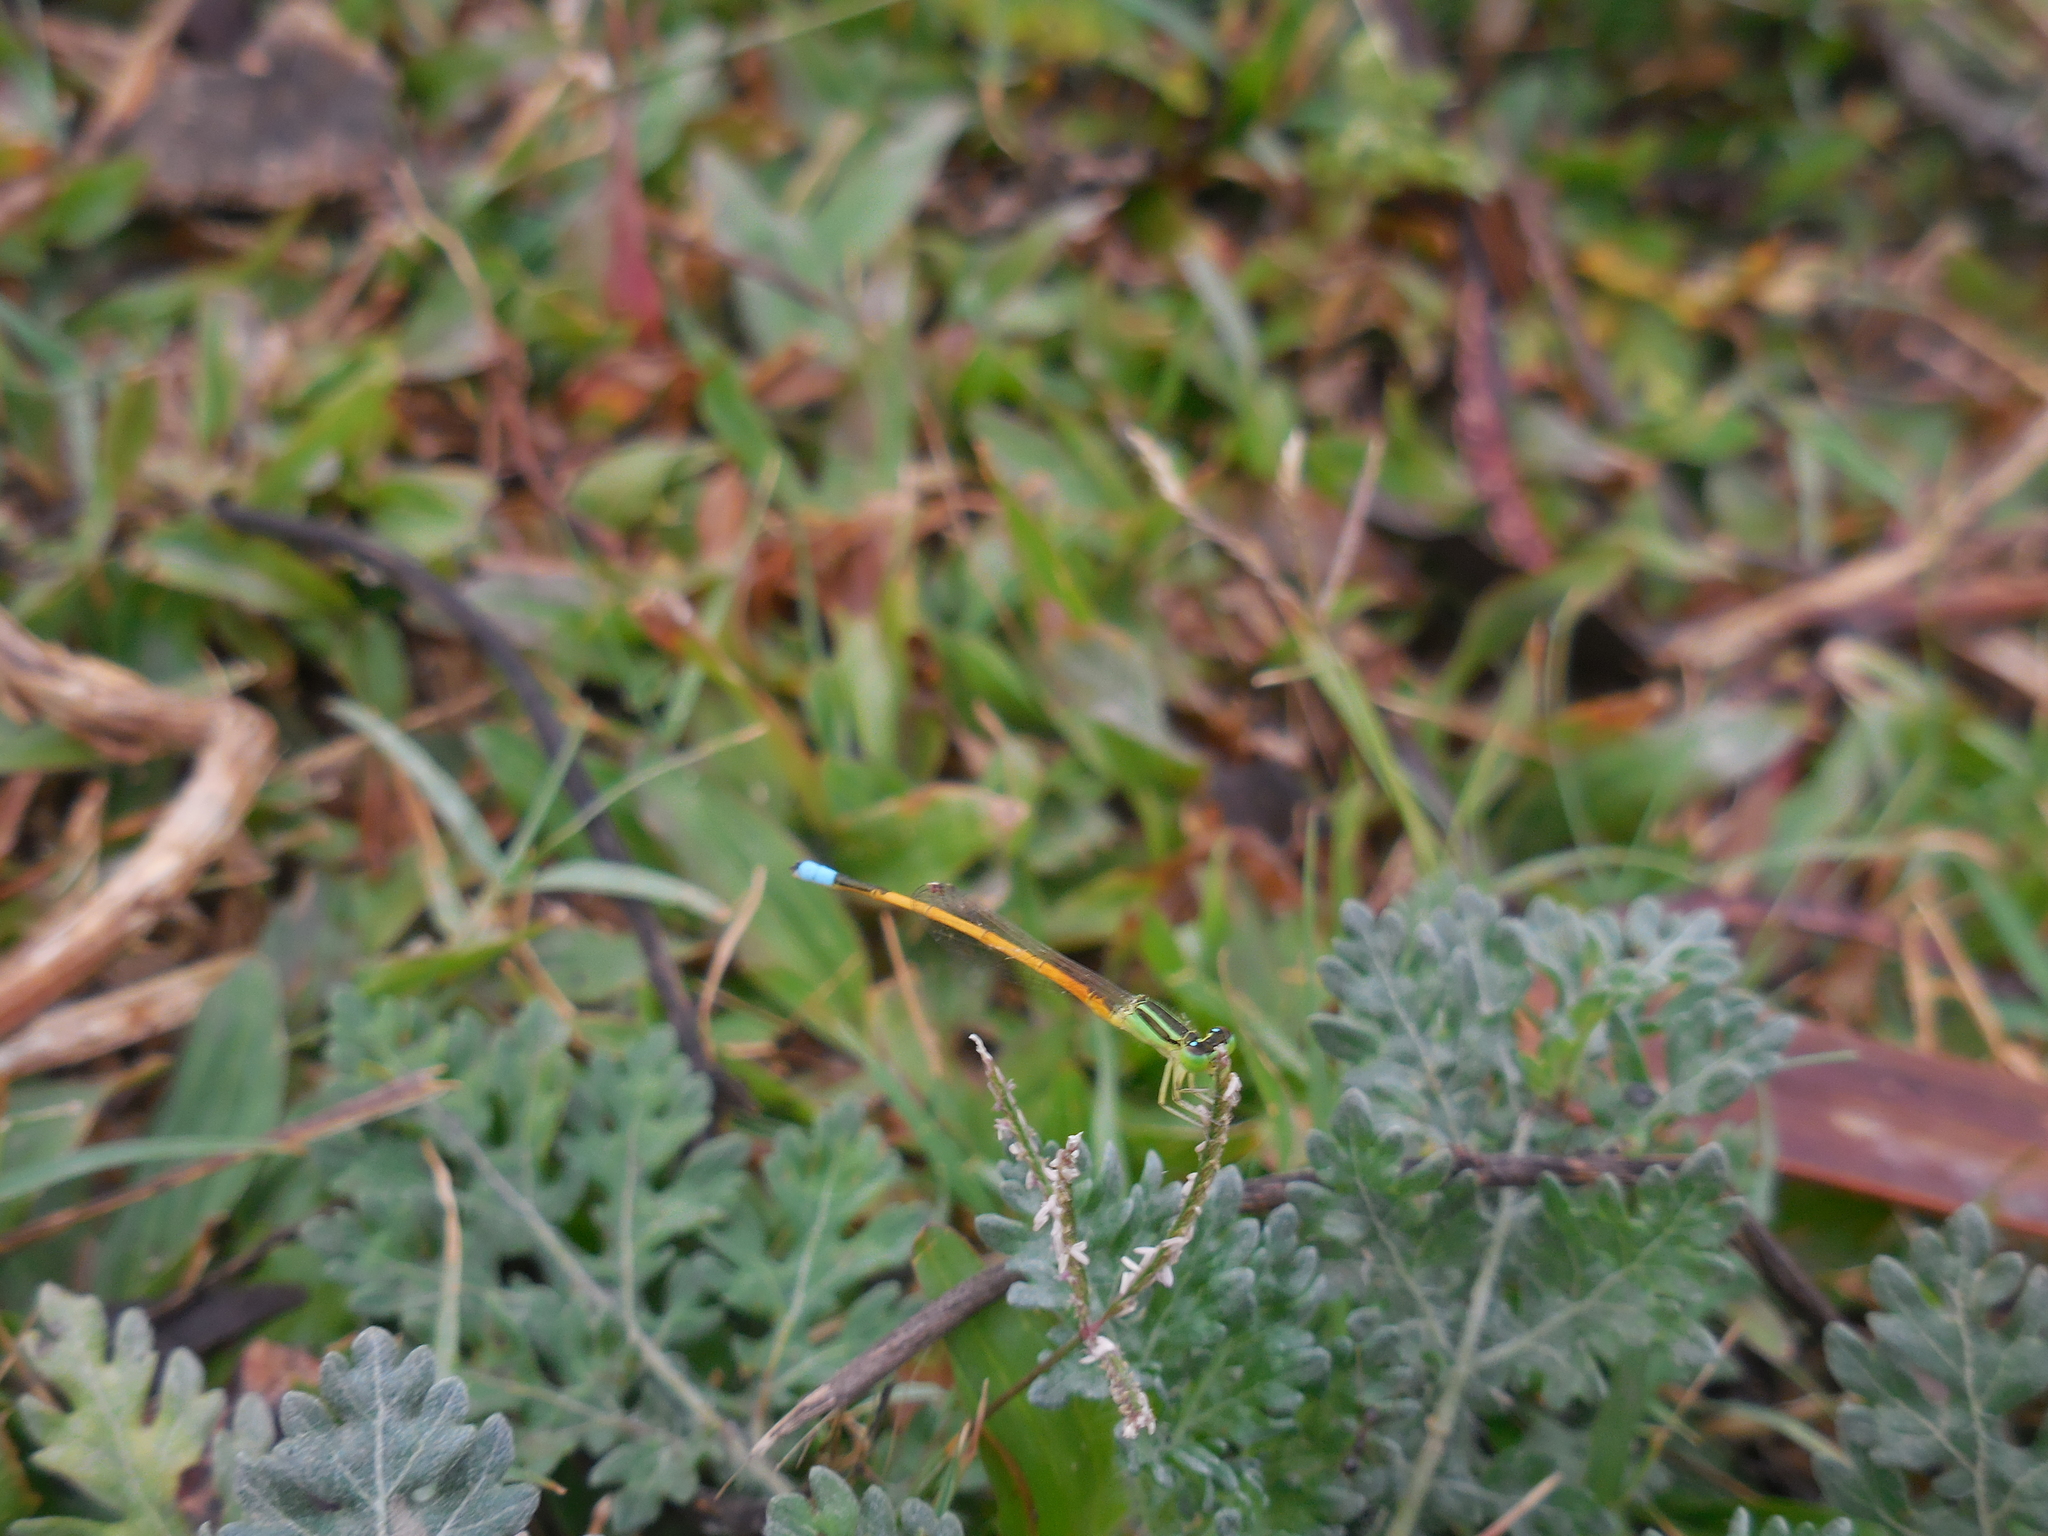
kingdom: Animalia
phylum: Arthropoda
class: Insecta
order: Odonata
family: Coenagrionidae
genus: Ischnura
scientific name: Ischnura rubilio
